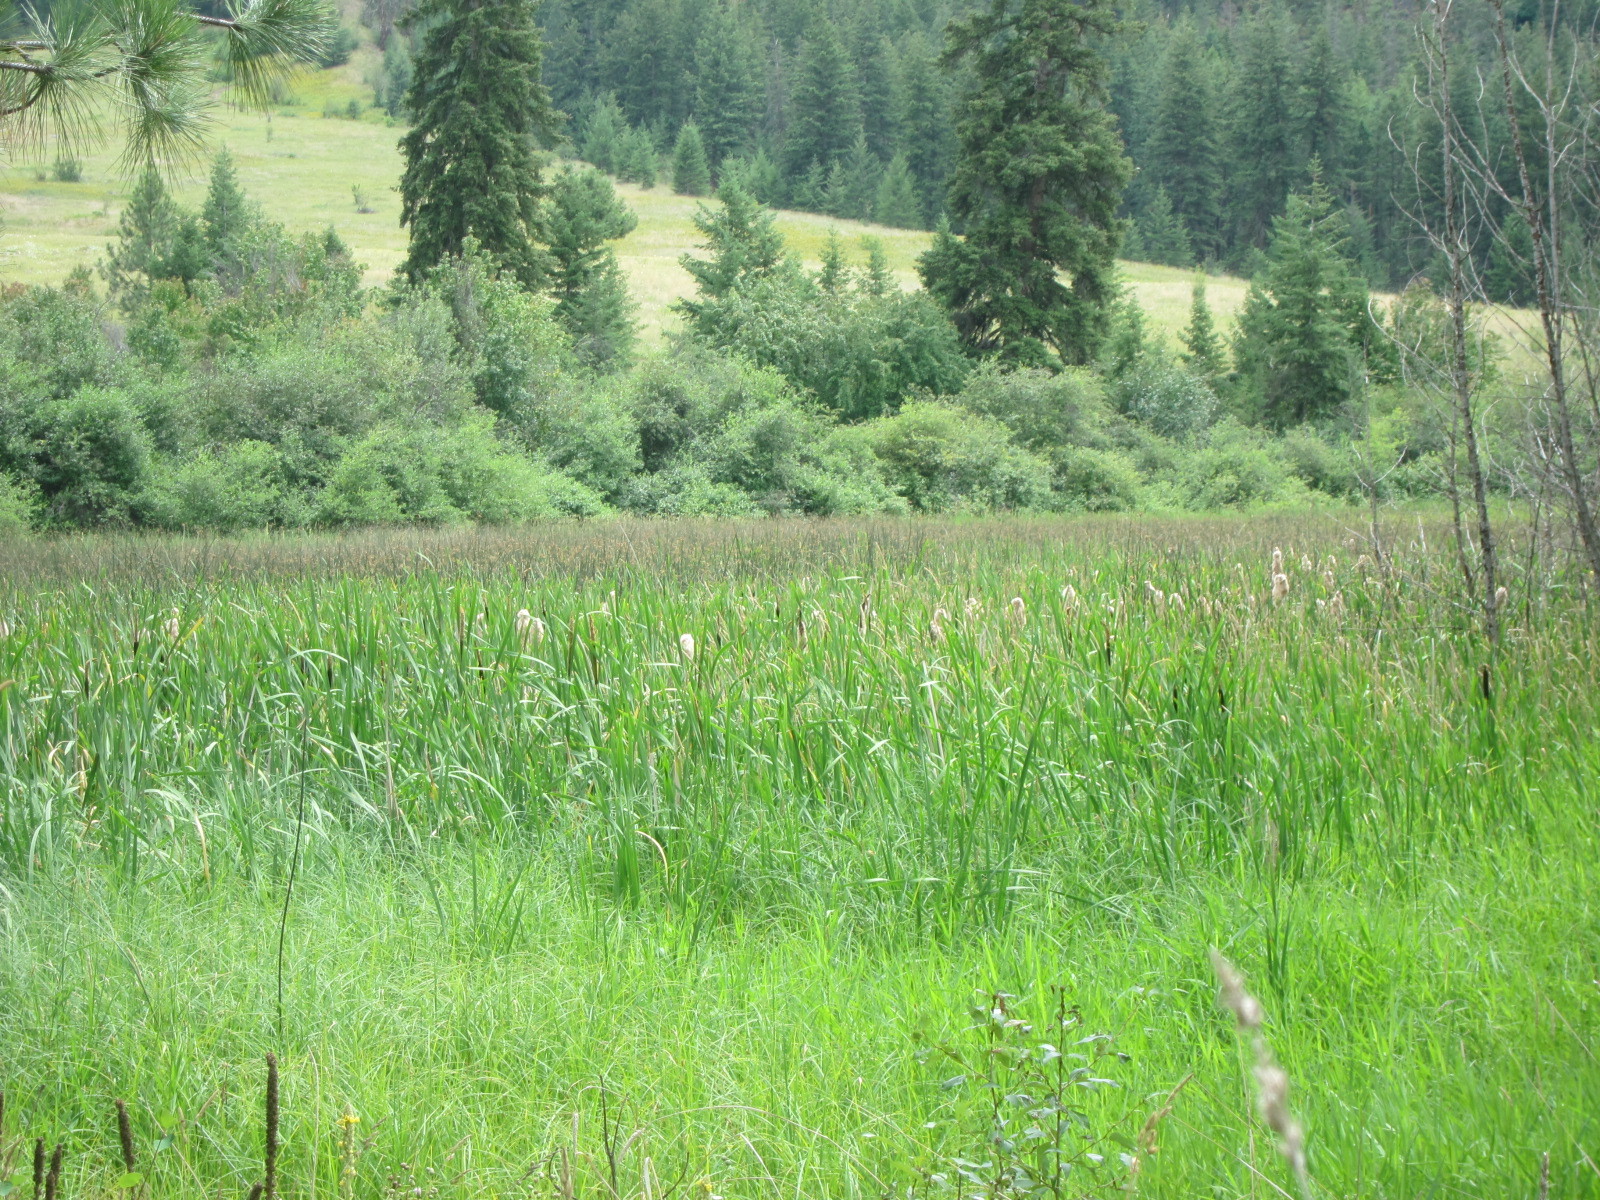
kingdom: Plantae
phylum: Tracheophyta
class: Liliopsida
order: Poales
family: Typhaceae
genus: Typha
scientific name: Typha latifolia
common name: Broadleaf cattail
